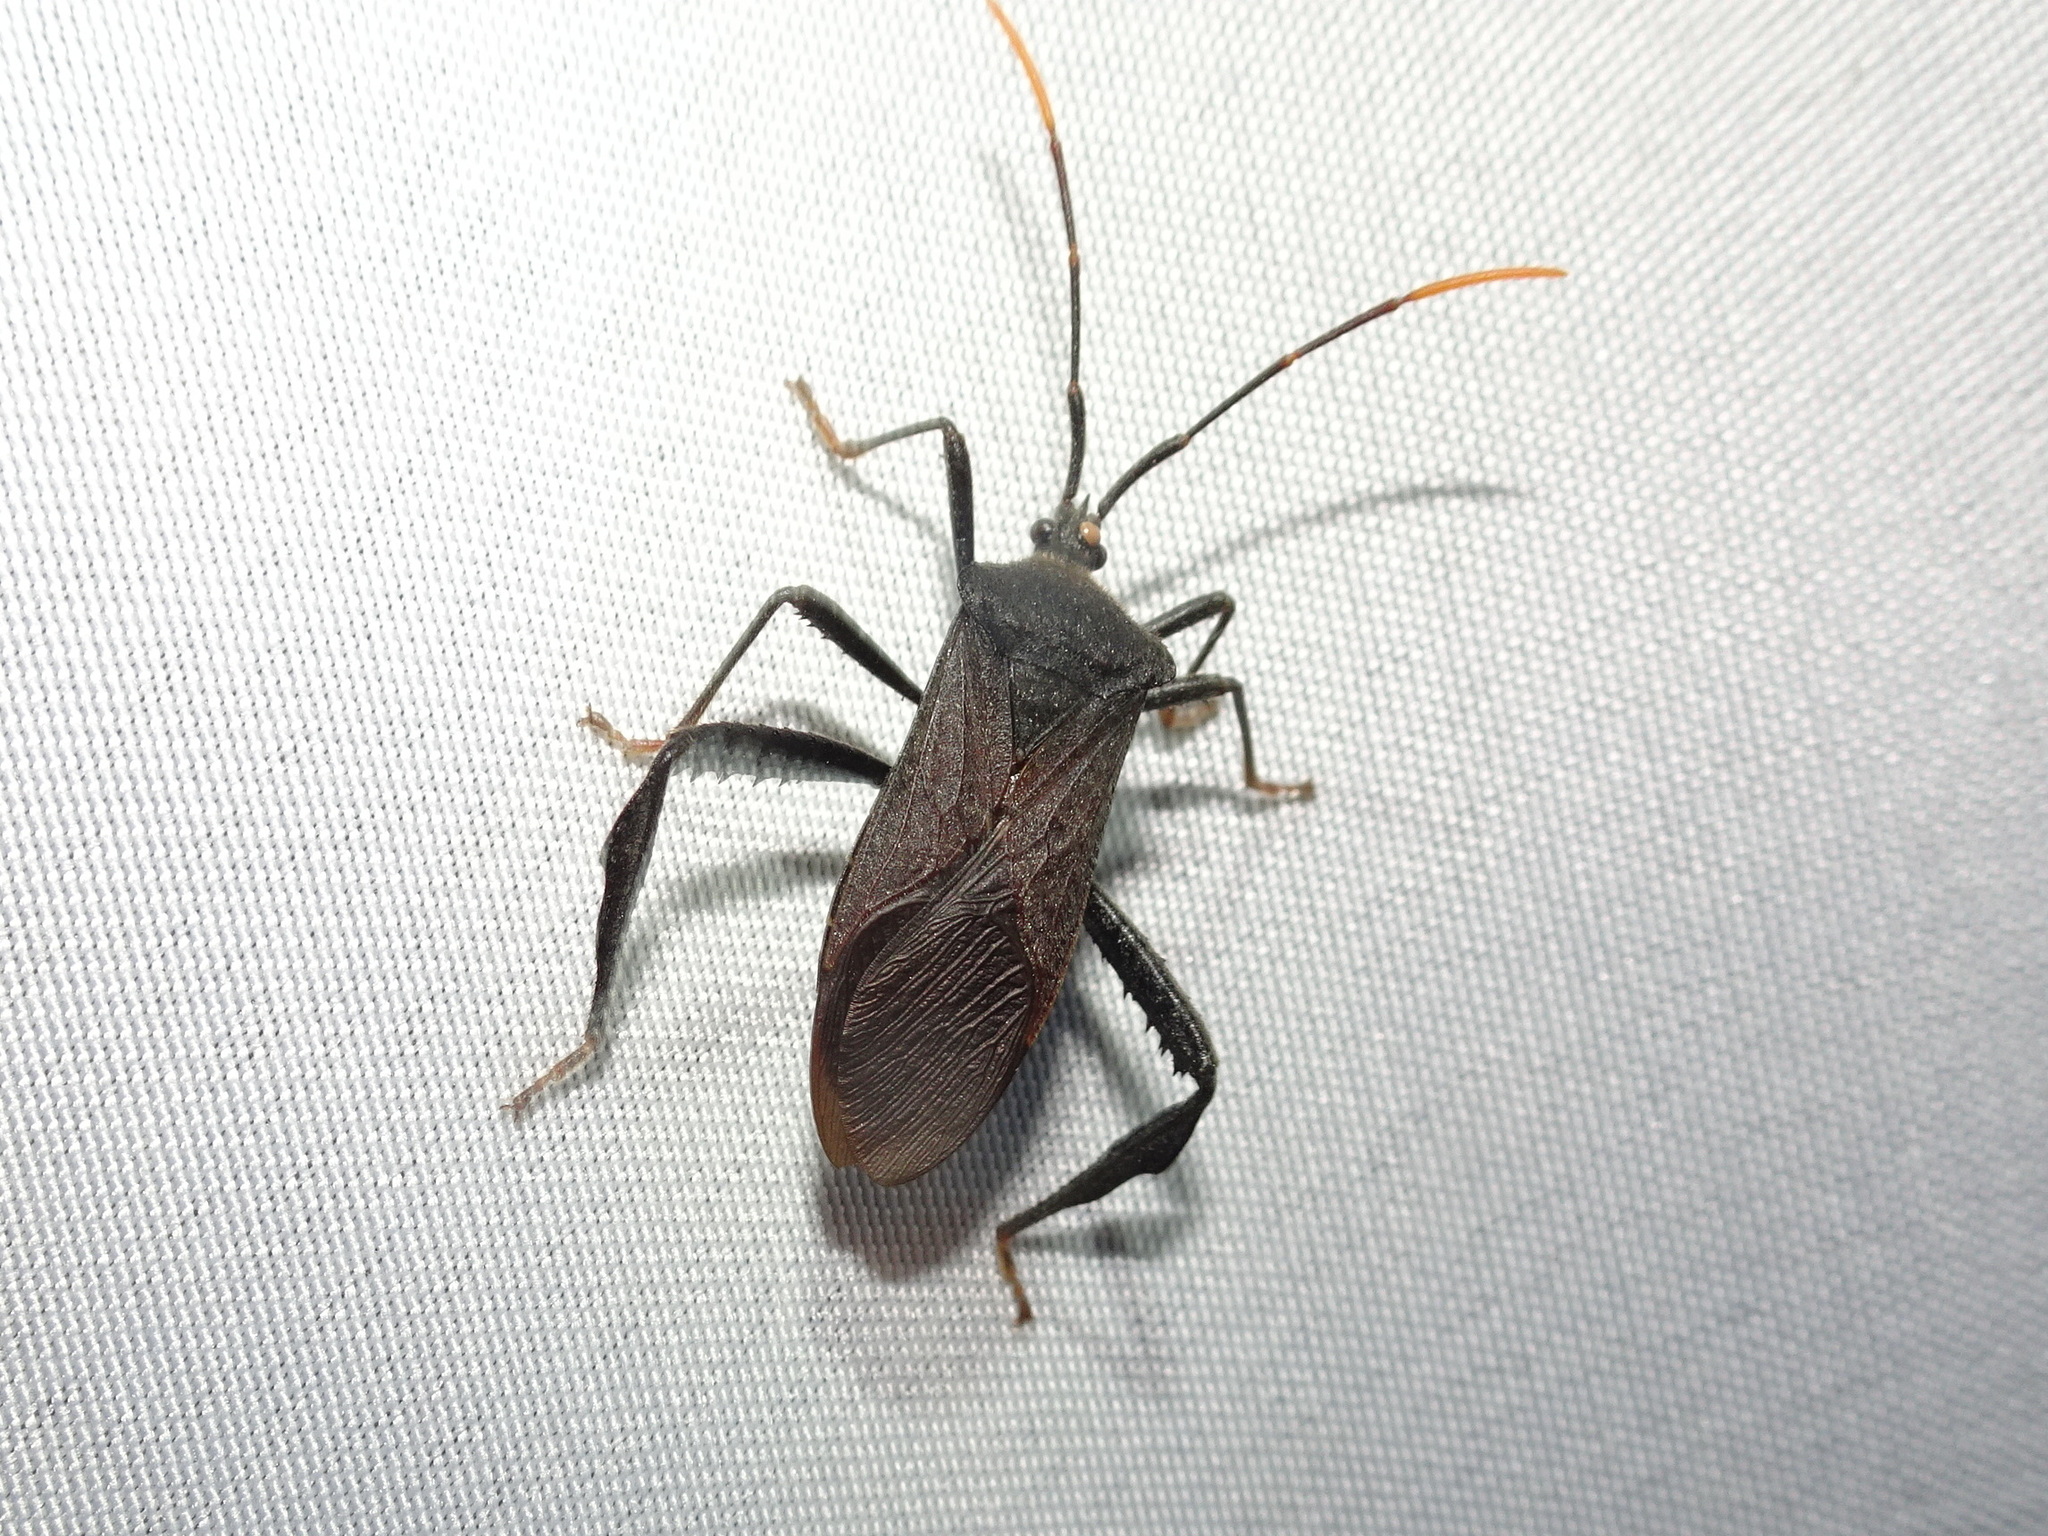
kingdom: Animalia
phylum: Arthropoda
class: Insecta
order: Hemiptera
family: Coreidae
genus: Acanthocephala
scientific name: Acanthocephala terminalis
